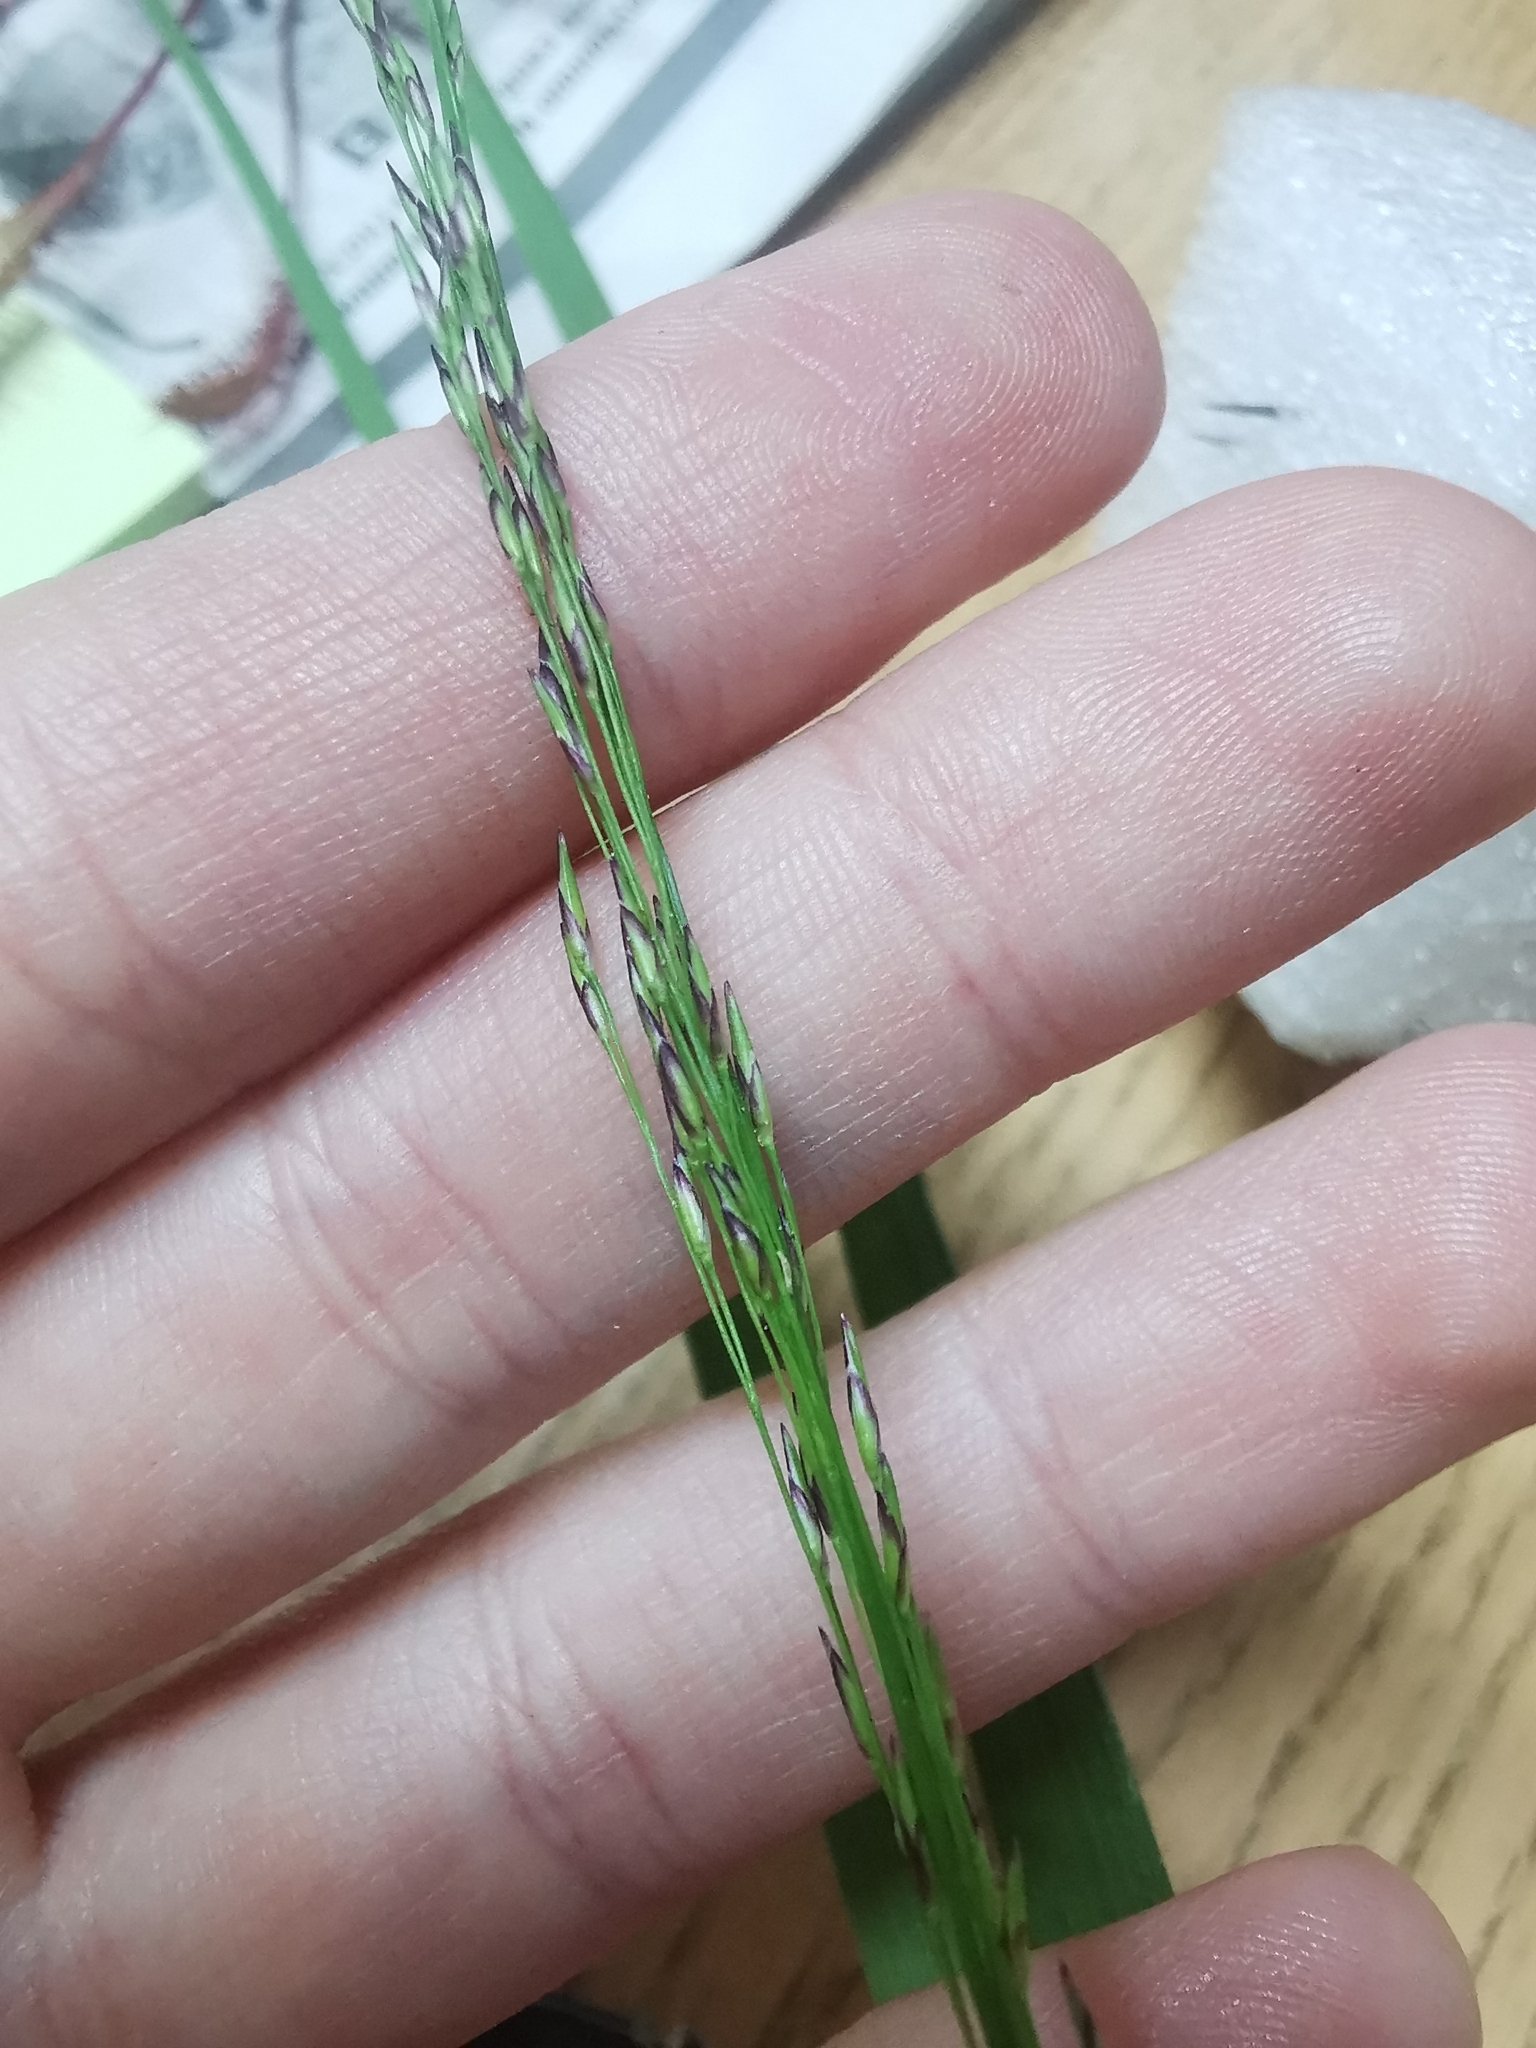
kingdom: Plantae
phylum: Tracheophyta
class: Liliopsida
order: Poales
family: Poaceae
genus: Molinia
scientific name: Molinia caerulea
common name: Purple moor-grass
